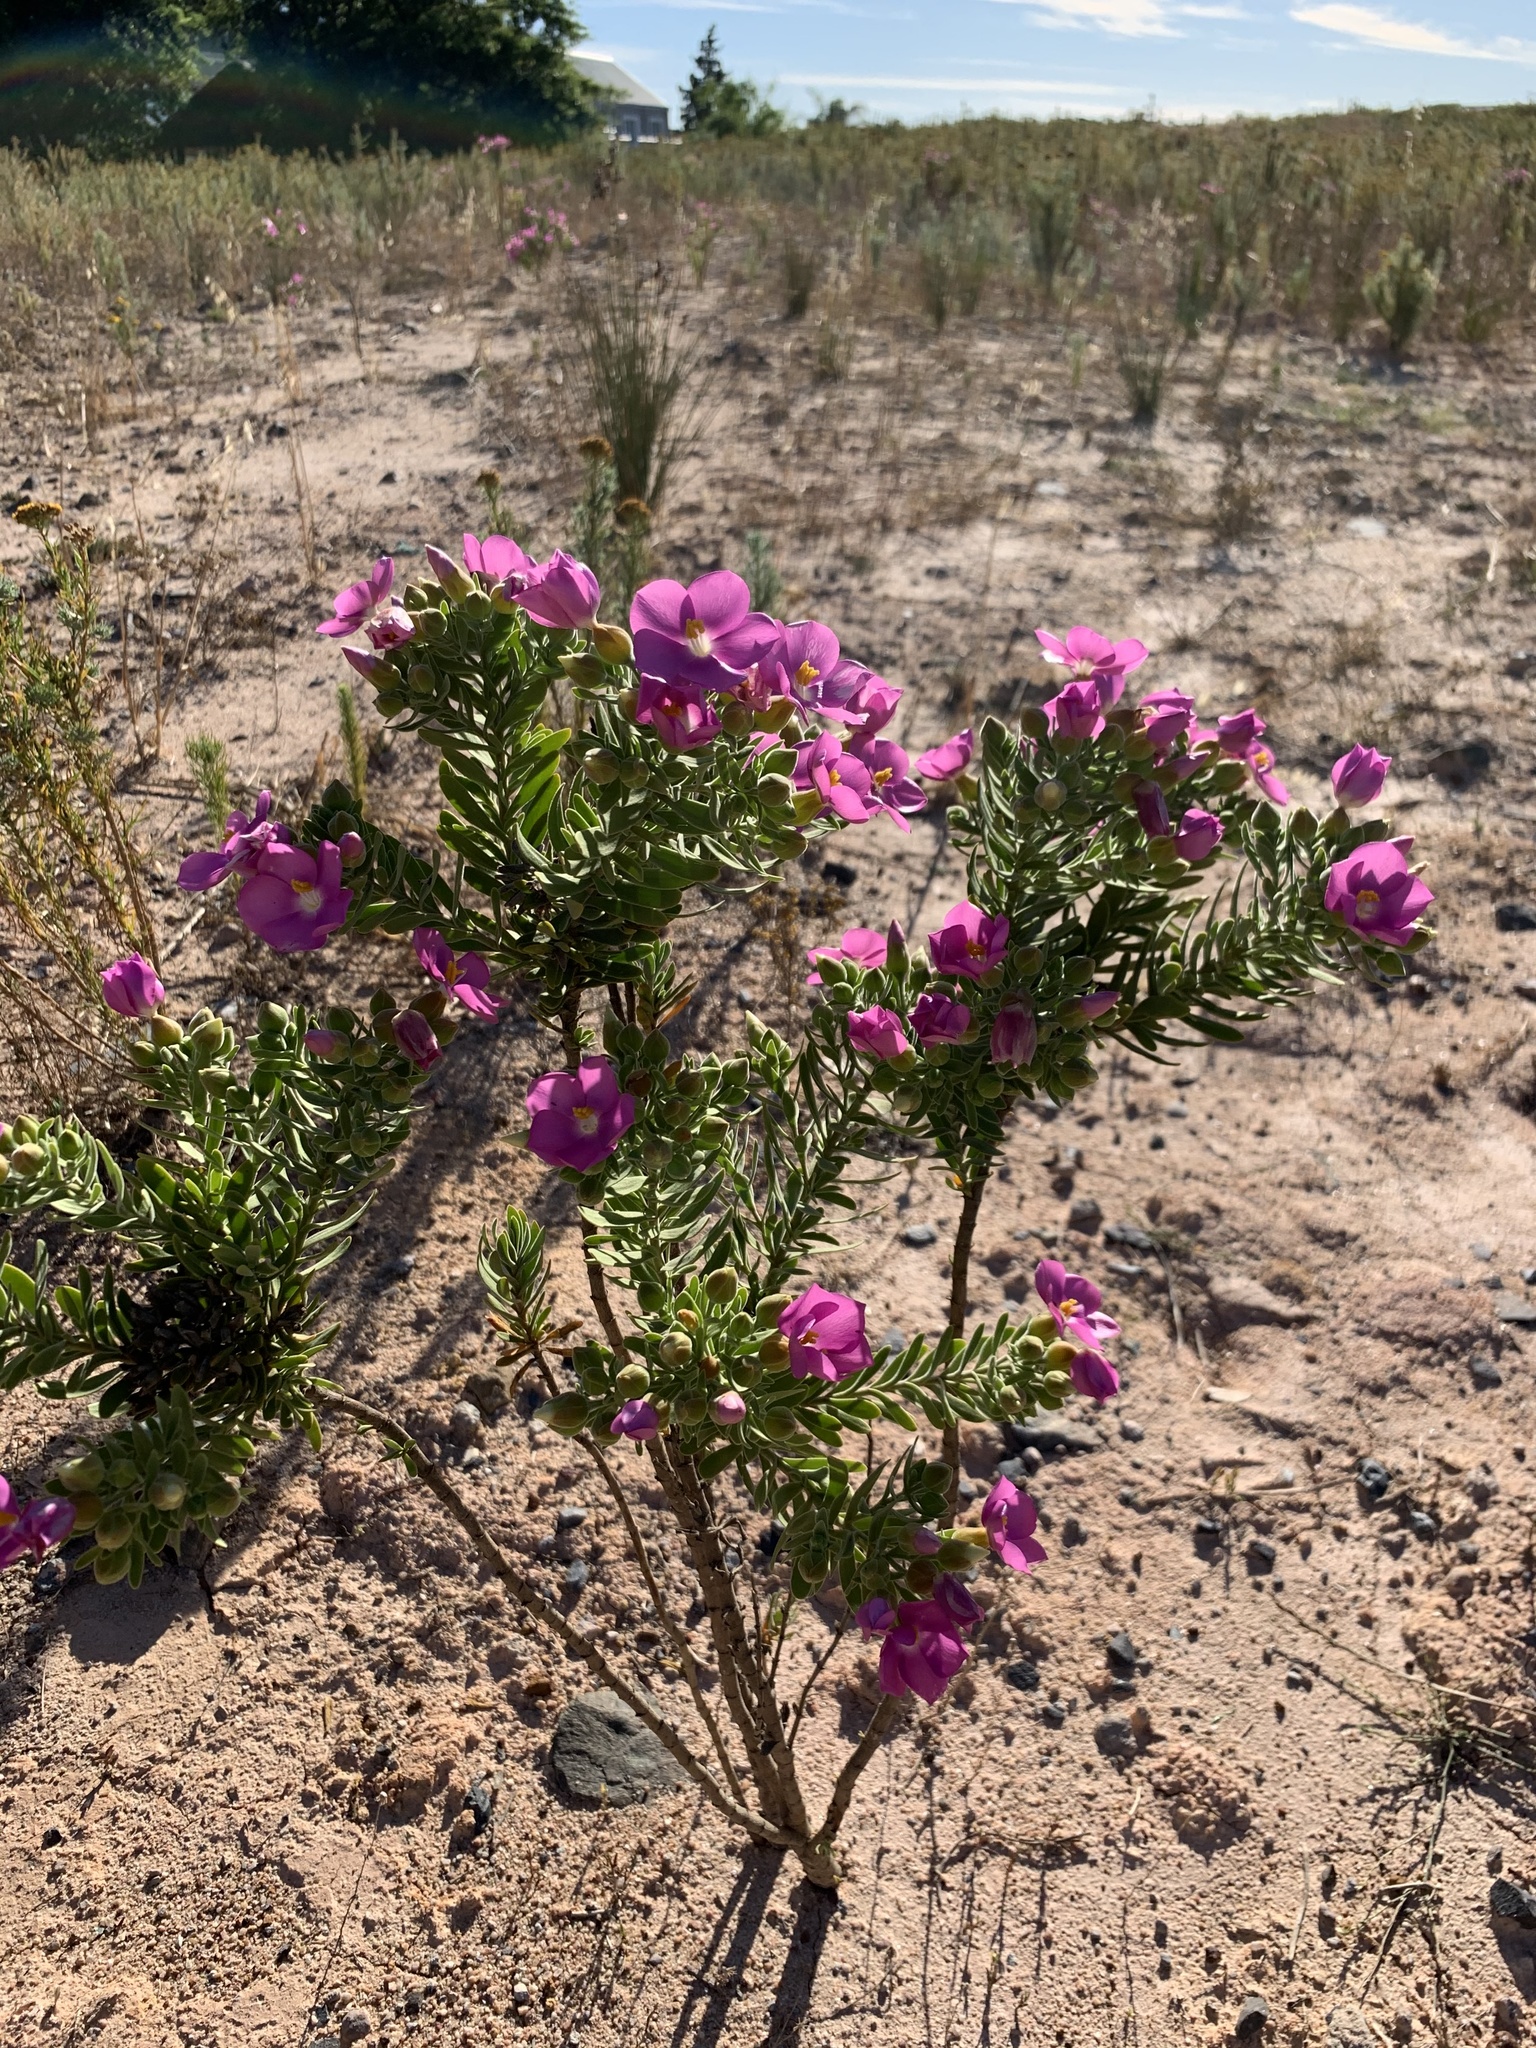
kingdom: Plantae
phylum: Tracheophyta
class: Magnoliopsida
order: Gentianales
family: Gentianaceae
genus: Orphium
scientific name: Orphium frutescens
